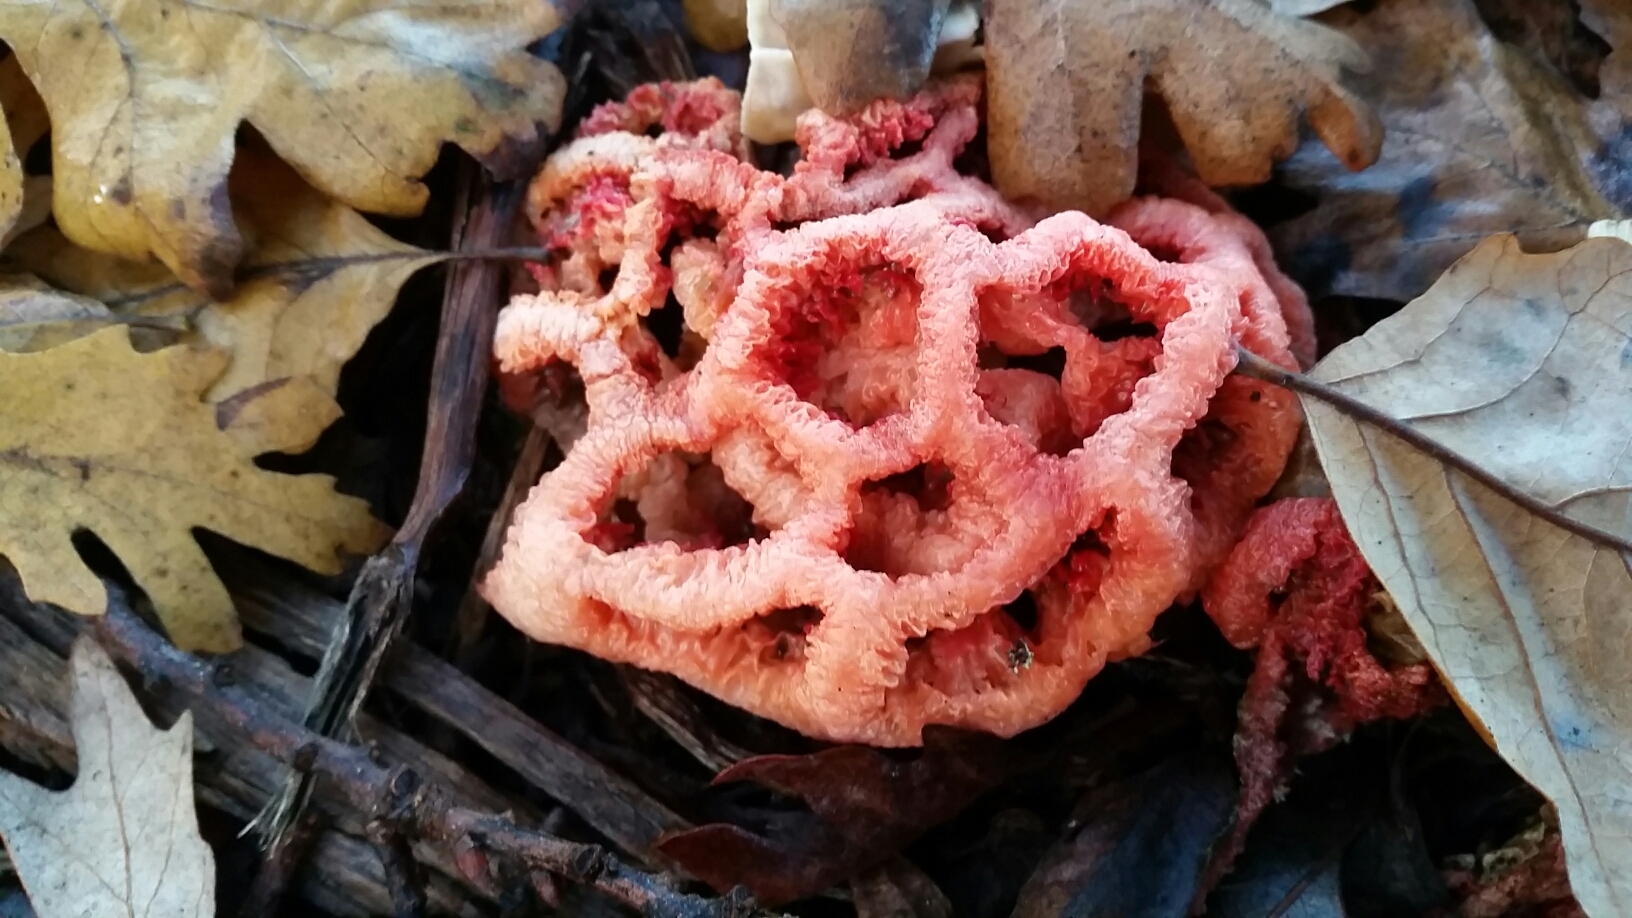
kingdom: Fungi
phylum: Basidiomycota
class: Agaricomycetes
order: Phallales
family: Phallaceae
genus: Clathrus
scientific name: Clathrus ruber
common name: Red cage
